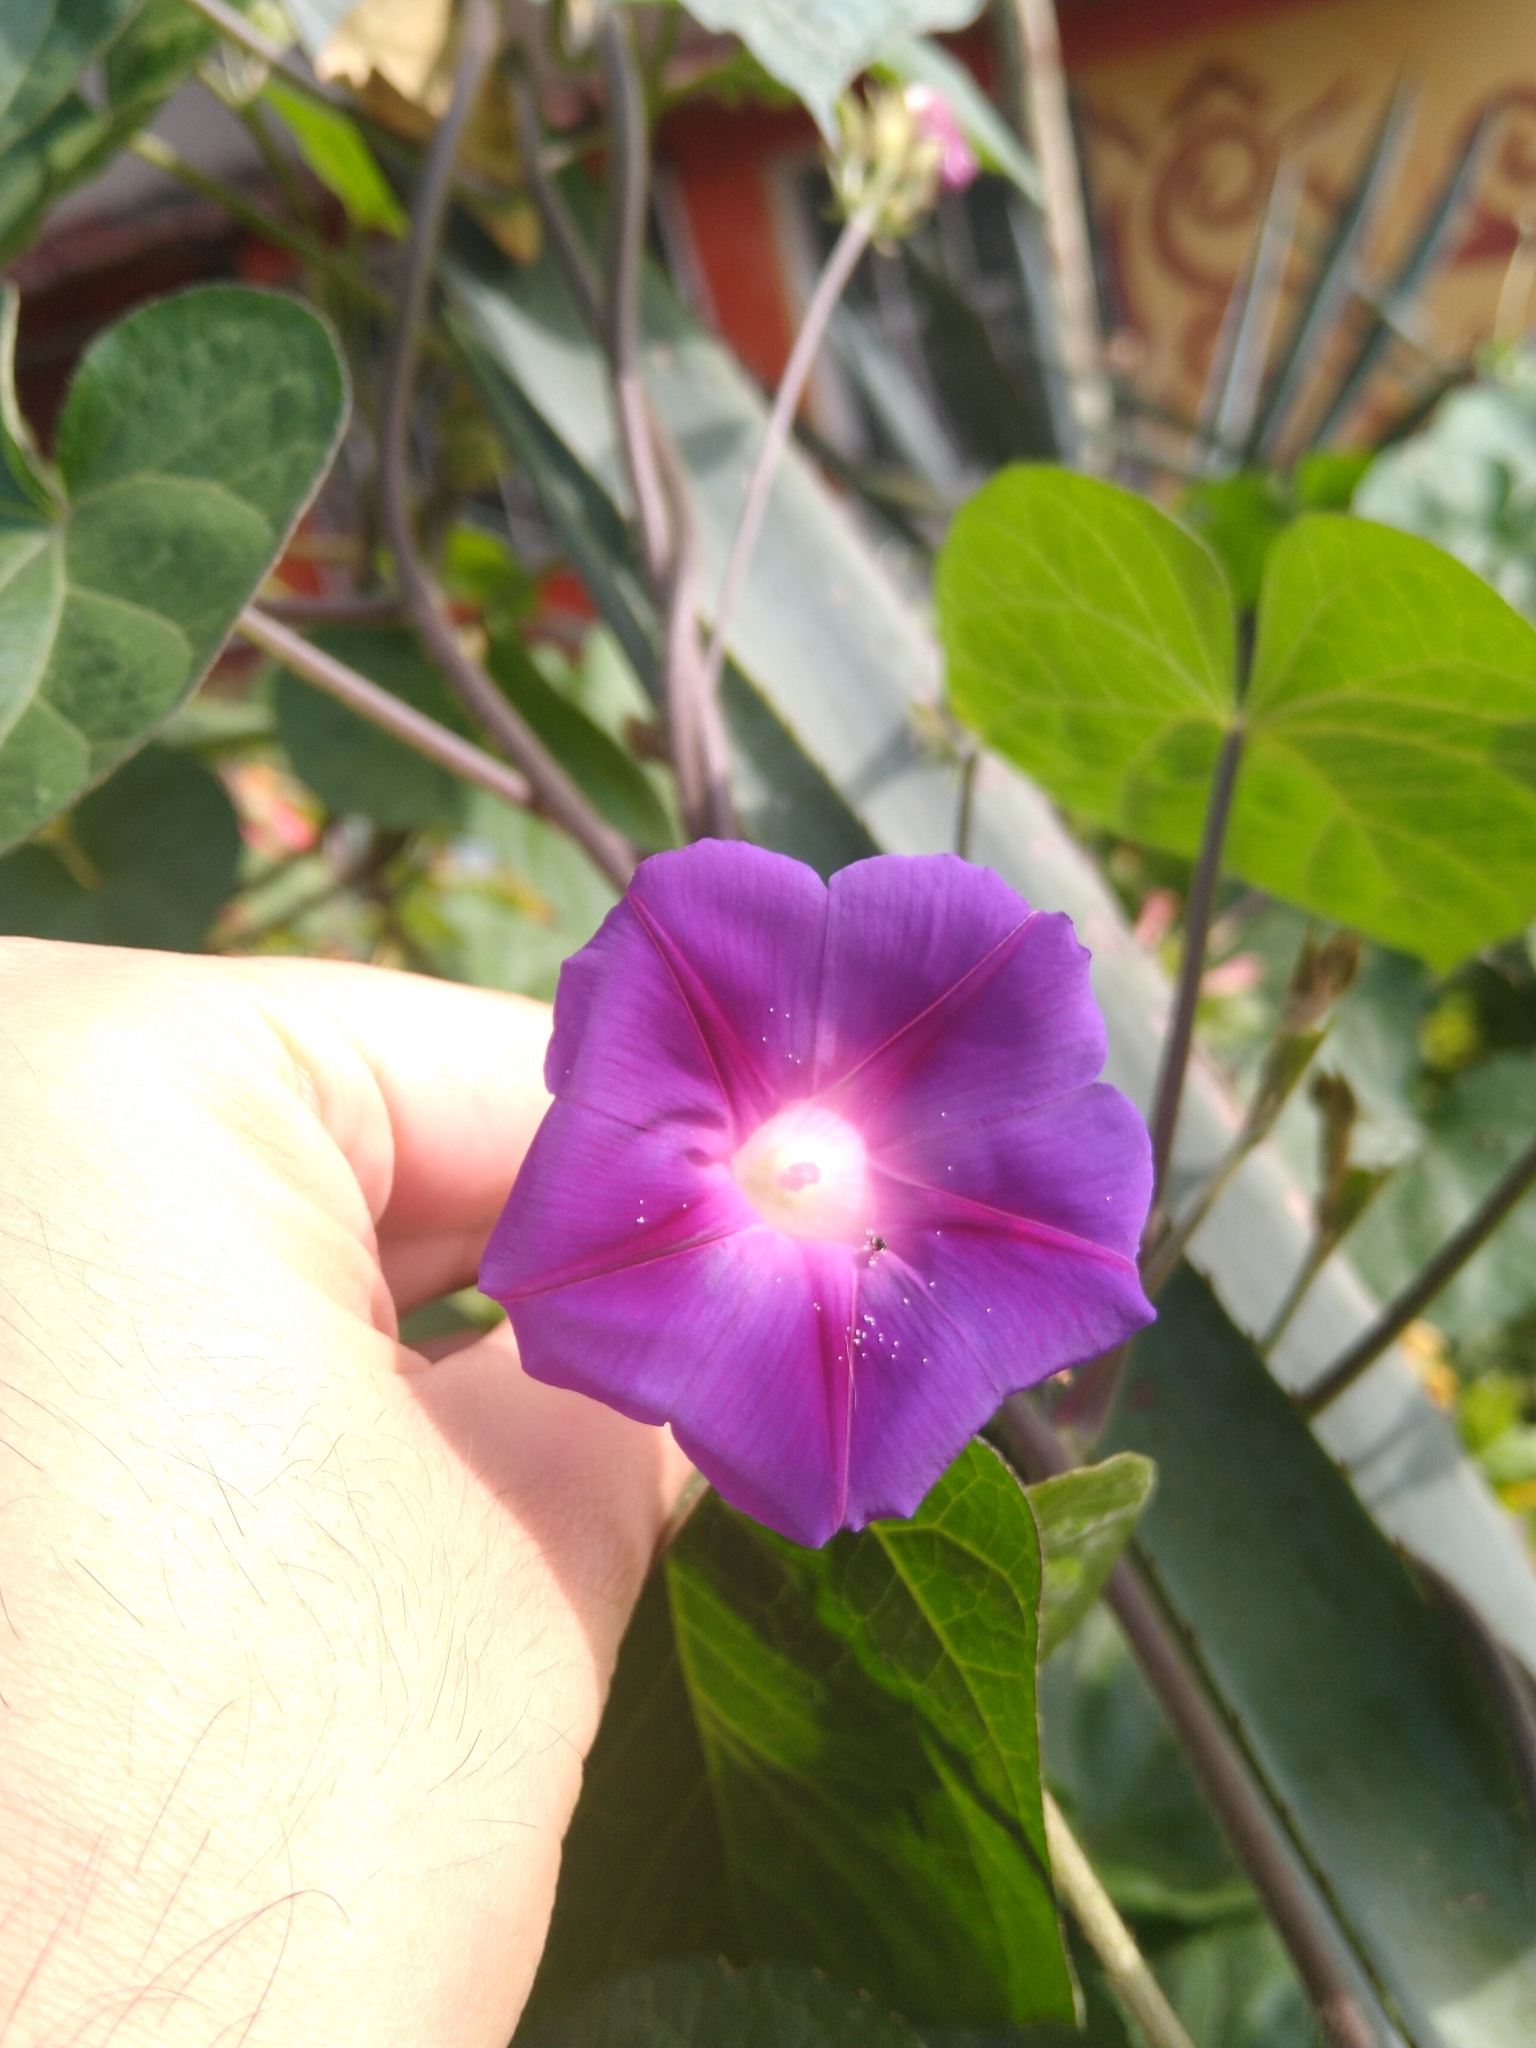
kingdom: Plantae
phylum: Tracheophyta
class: Magnoliopsida
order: Solanales
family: Convolvulaceae
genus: Ipomoea
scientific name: Ipomoea purpurea
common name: Common morning-glory
